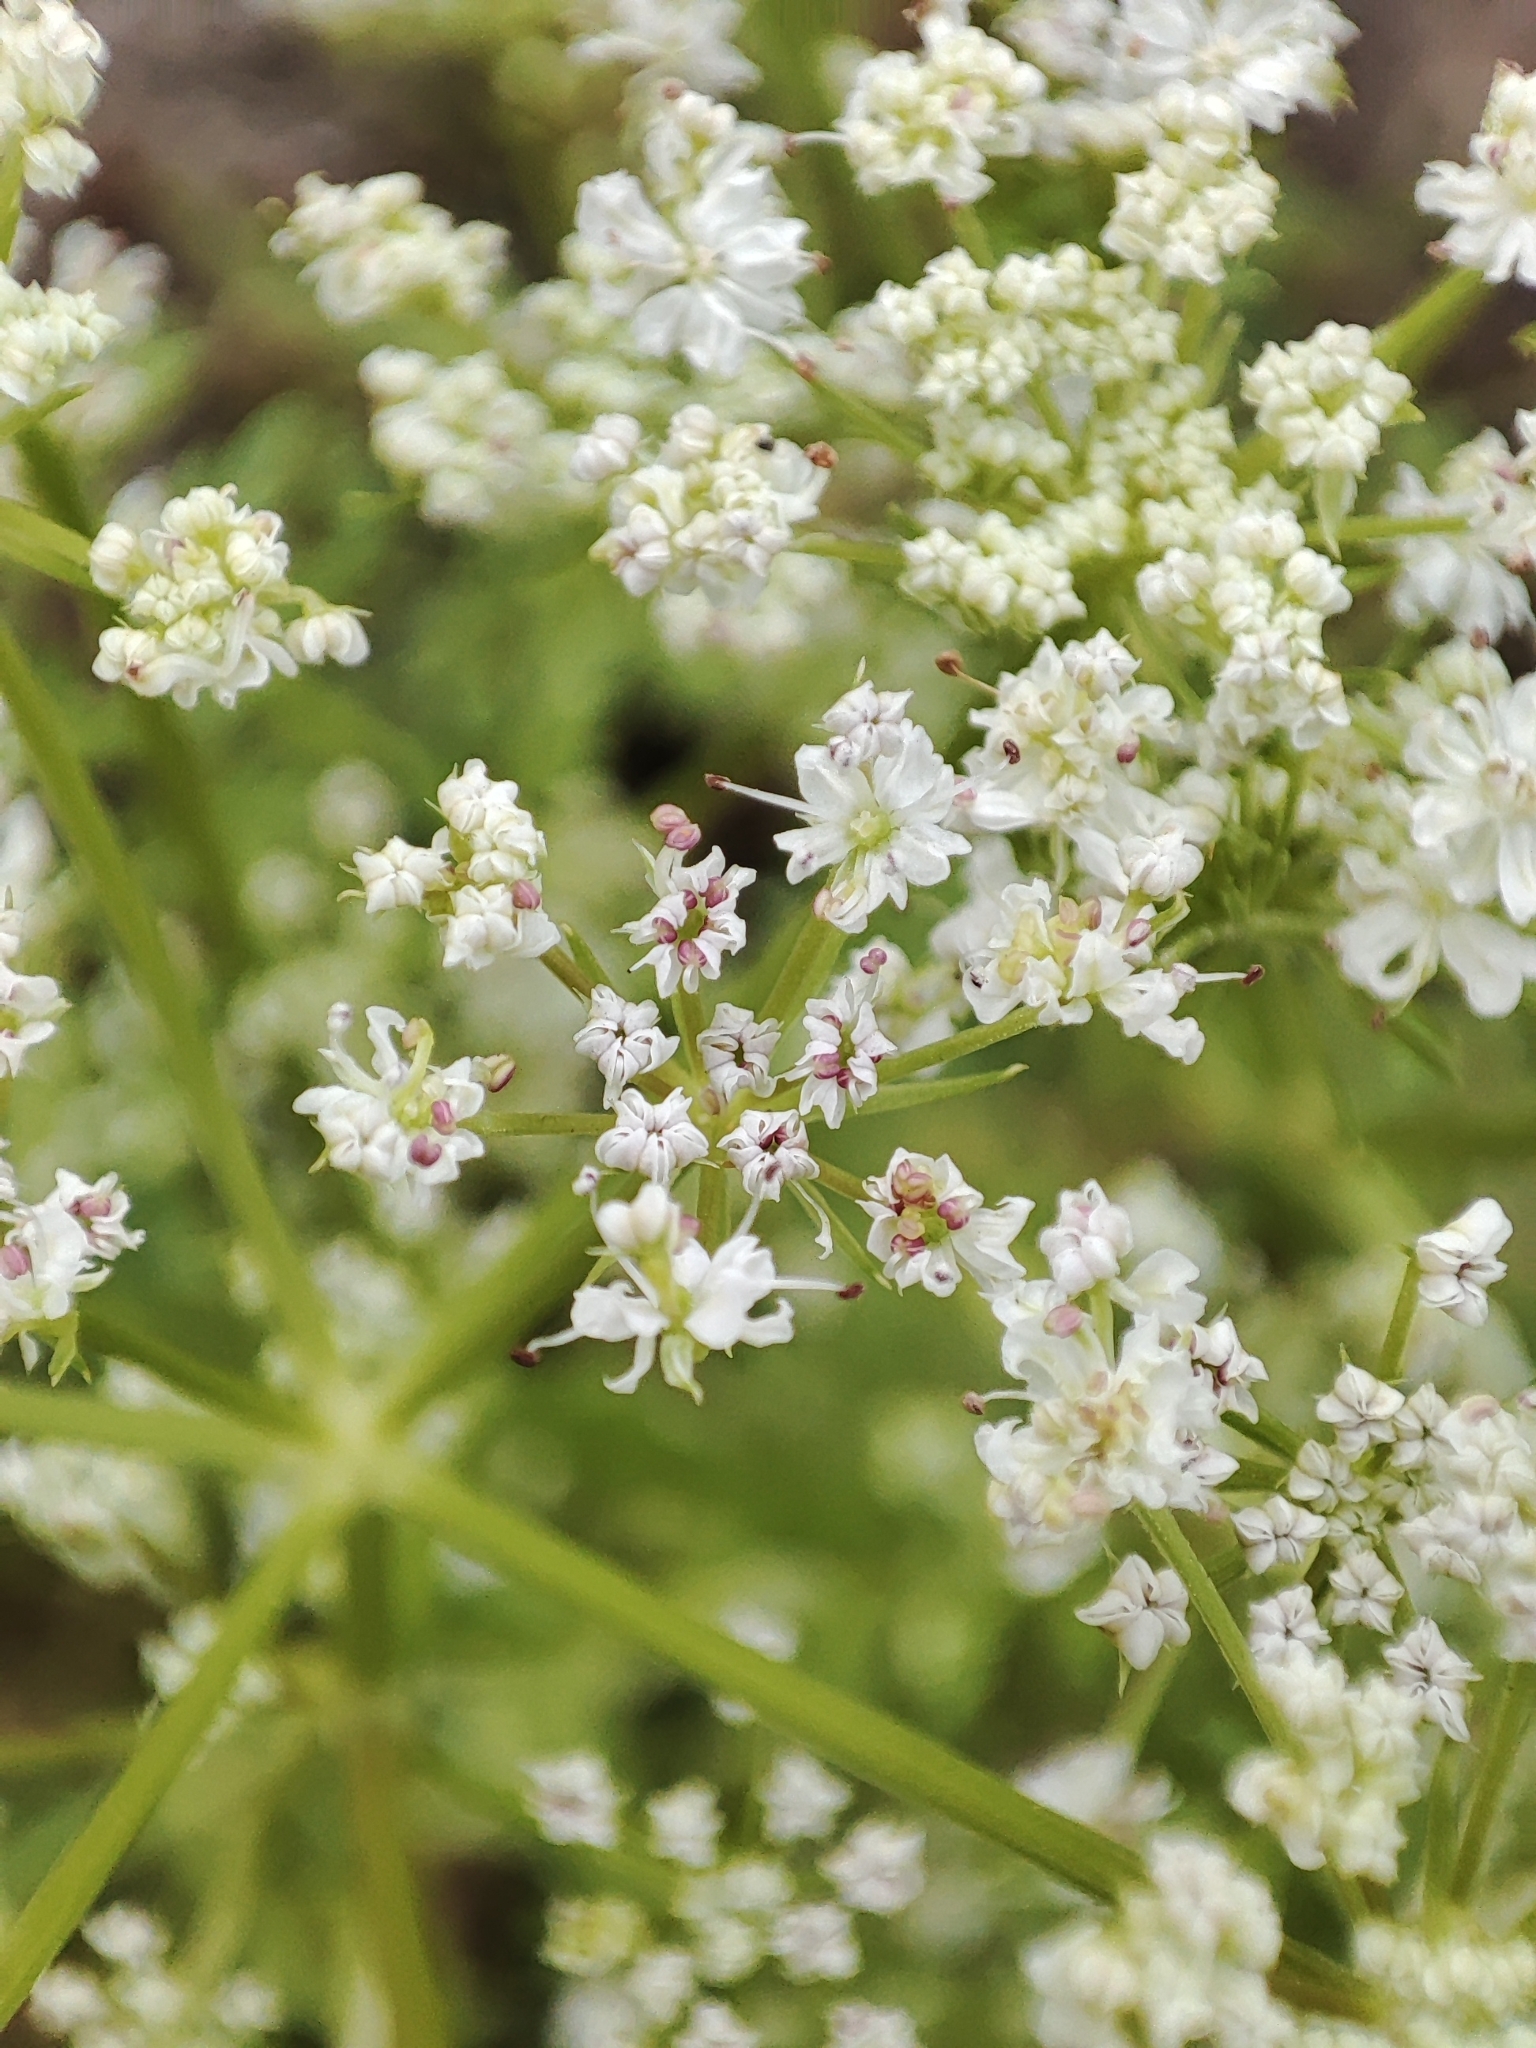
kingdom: Plantae
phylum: Tracheophyta
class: Magnoliopsida
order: Apiales
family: Apiaceae
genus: Oenanthe
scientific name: Oenanthe aquatica
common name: Fine-leaved water-dropwort
